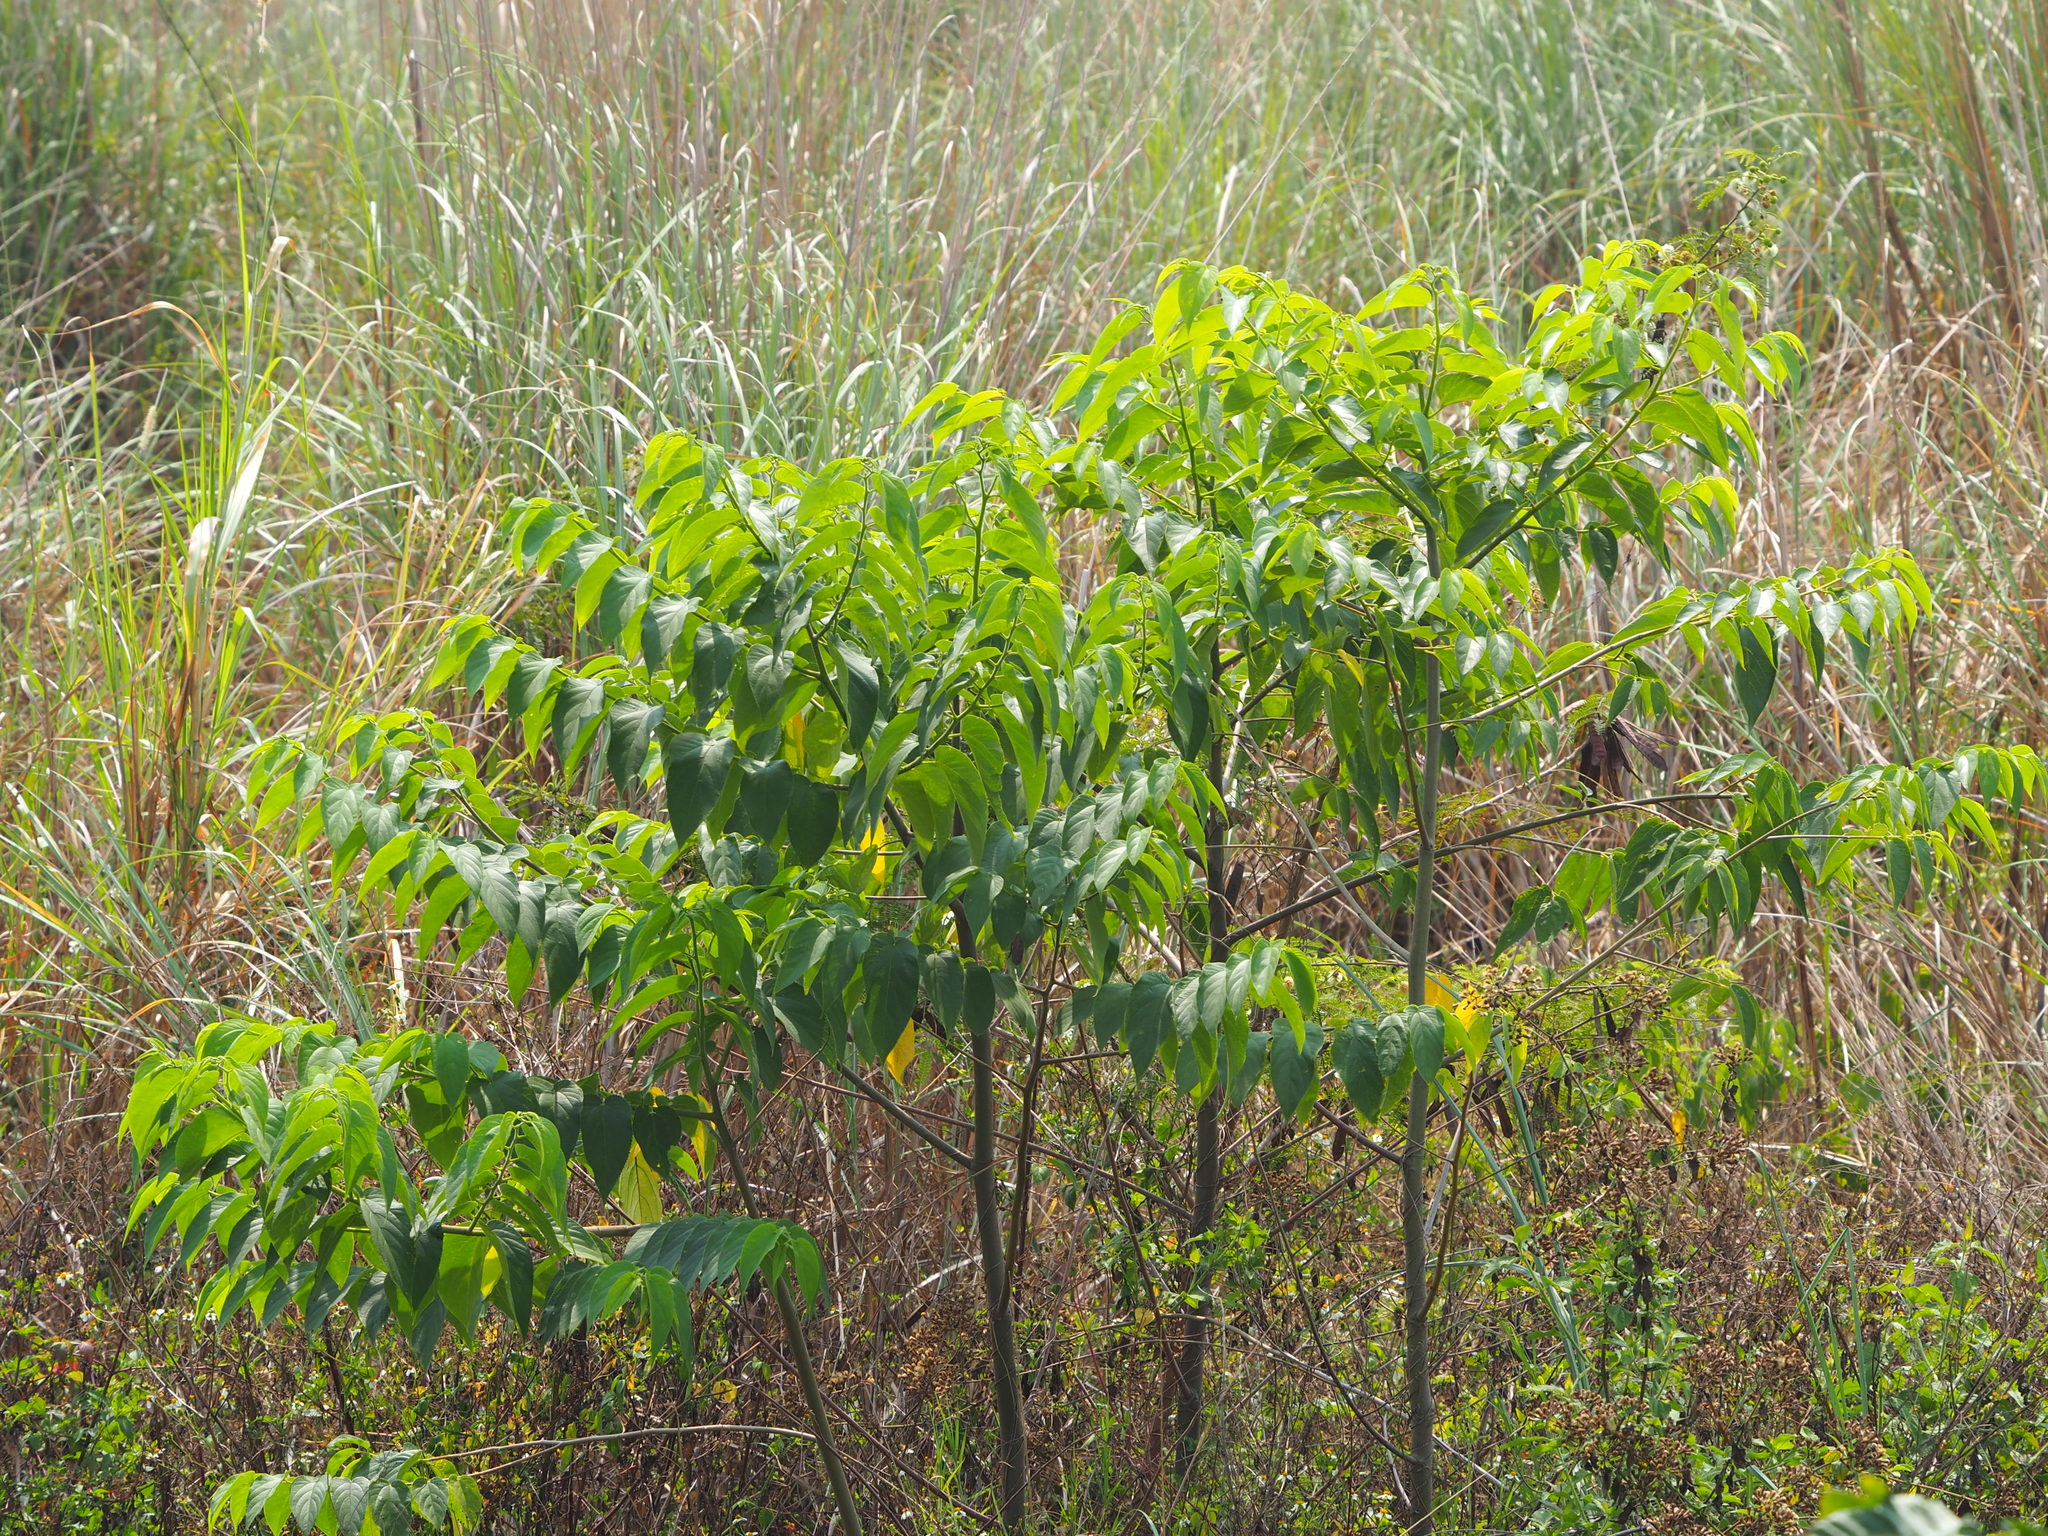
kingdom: Plantae
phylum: Tracheophyta
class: Magnoliopsida
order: Rosales
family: Cannabaceae
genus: Trema
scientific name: Trema orientale
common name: Indian charcoal tree
